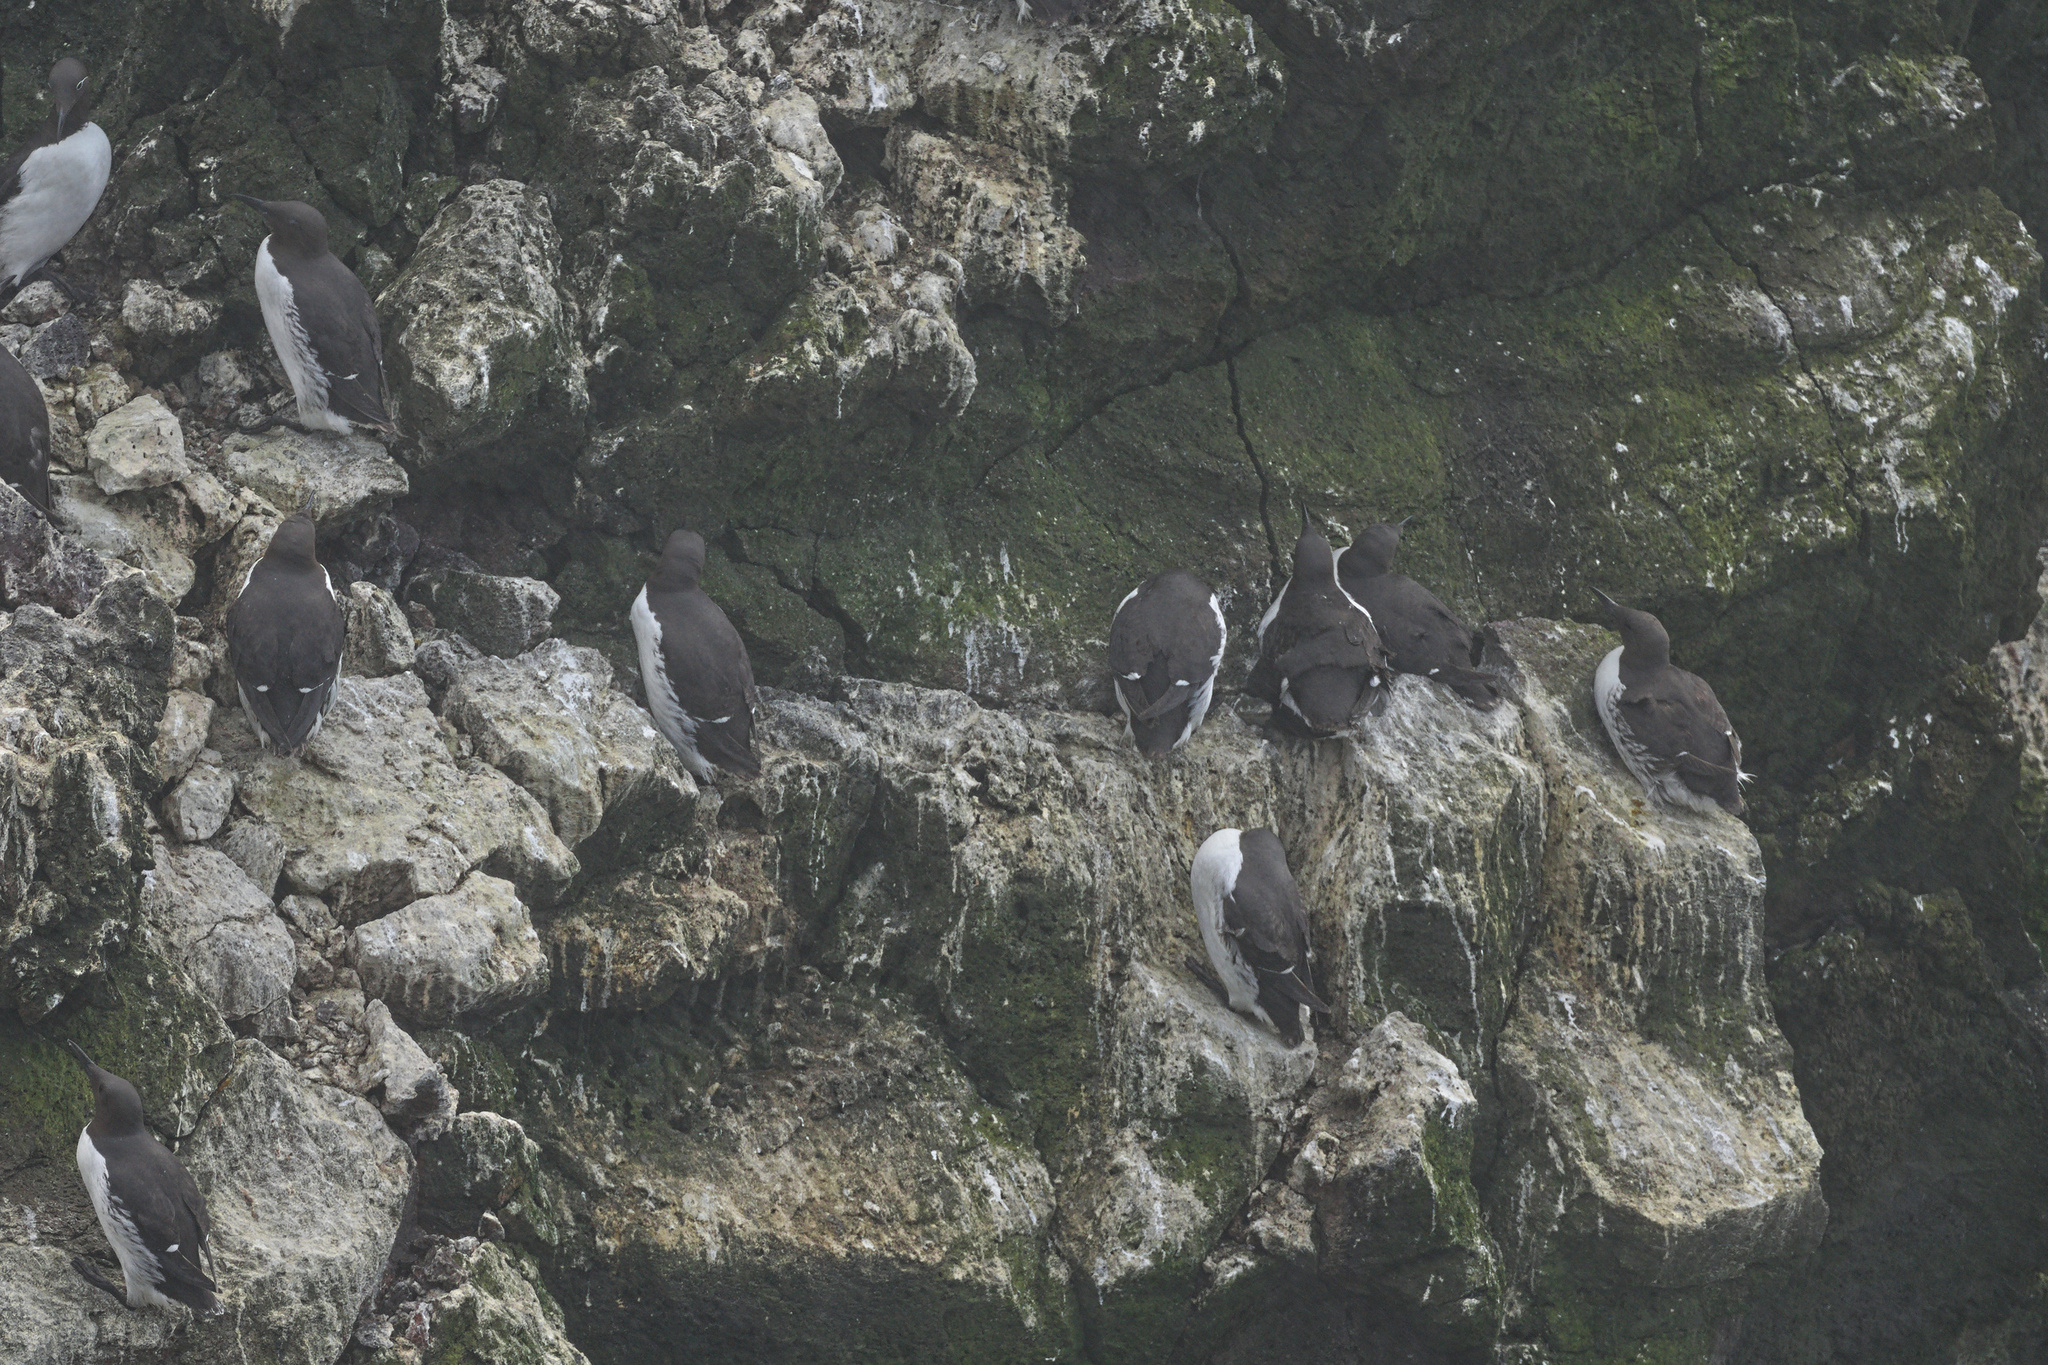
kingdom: Animalia
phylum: Chordata
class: Aves
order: Charadriiformes
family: Alcidae
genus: Uria
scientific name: Uria aalge
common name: Common murre
